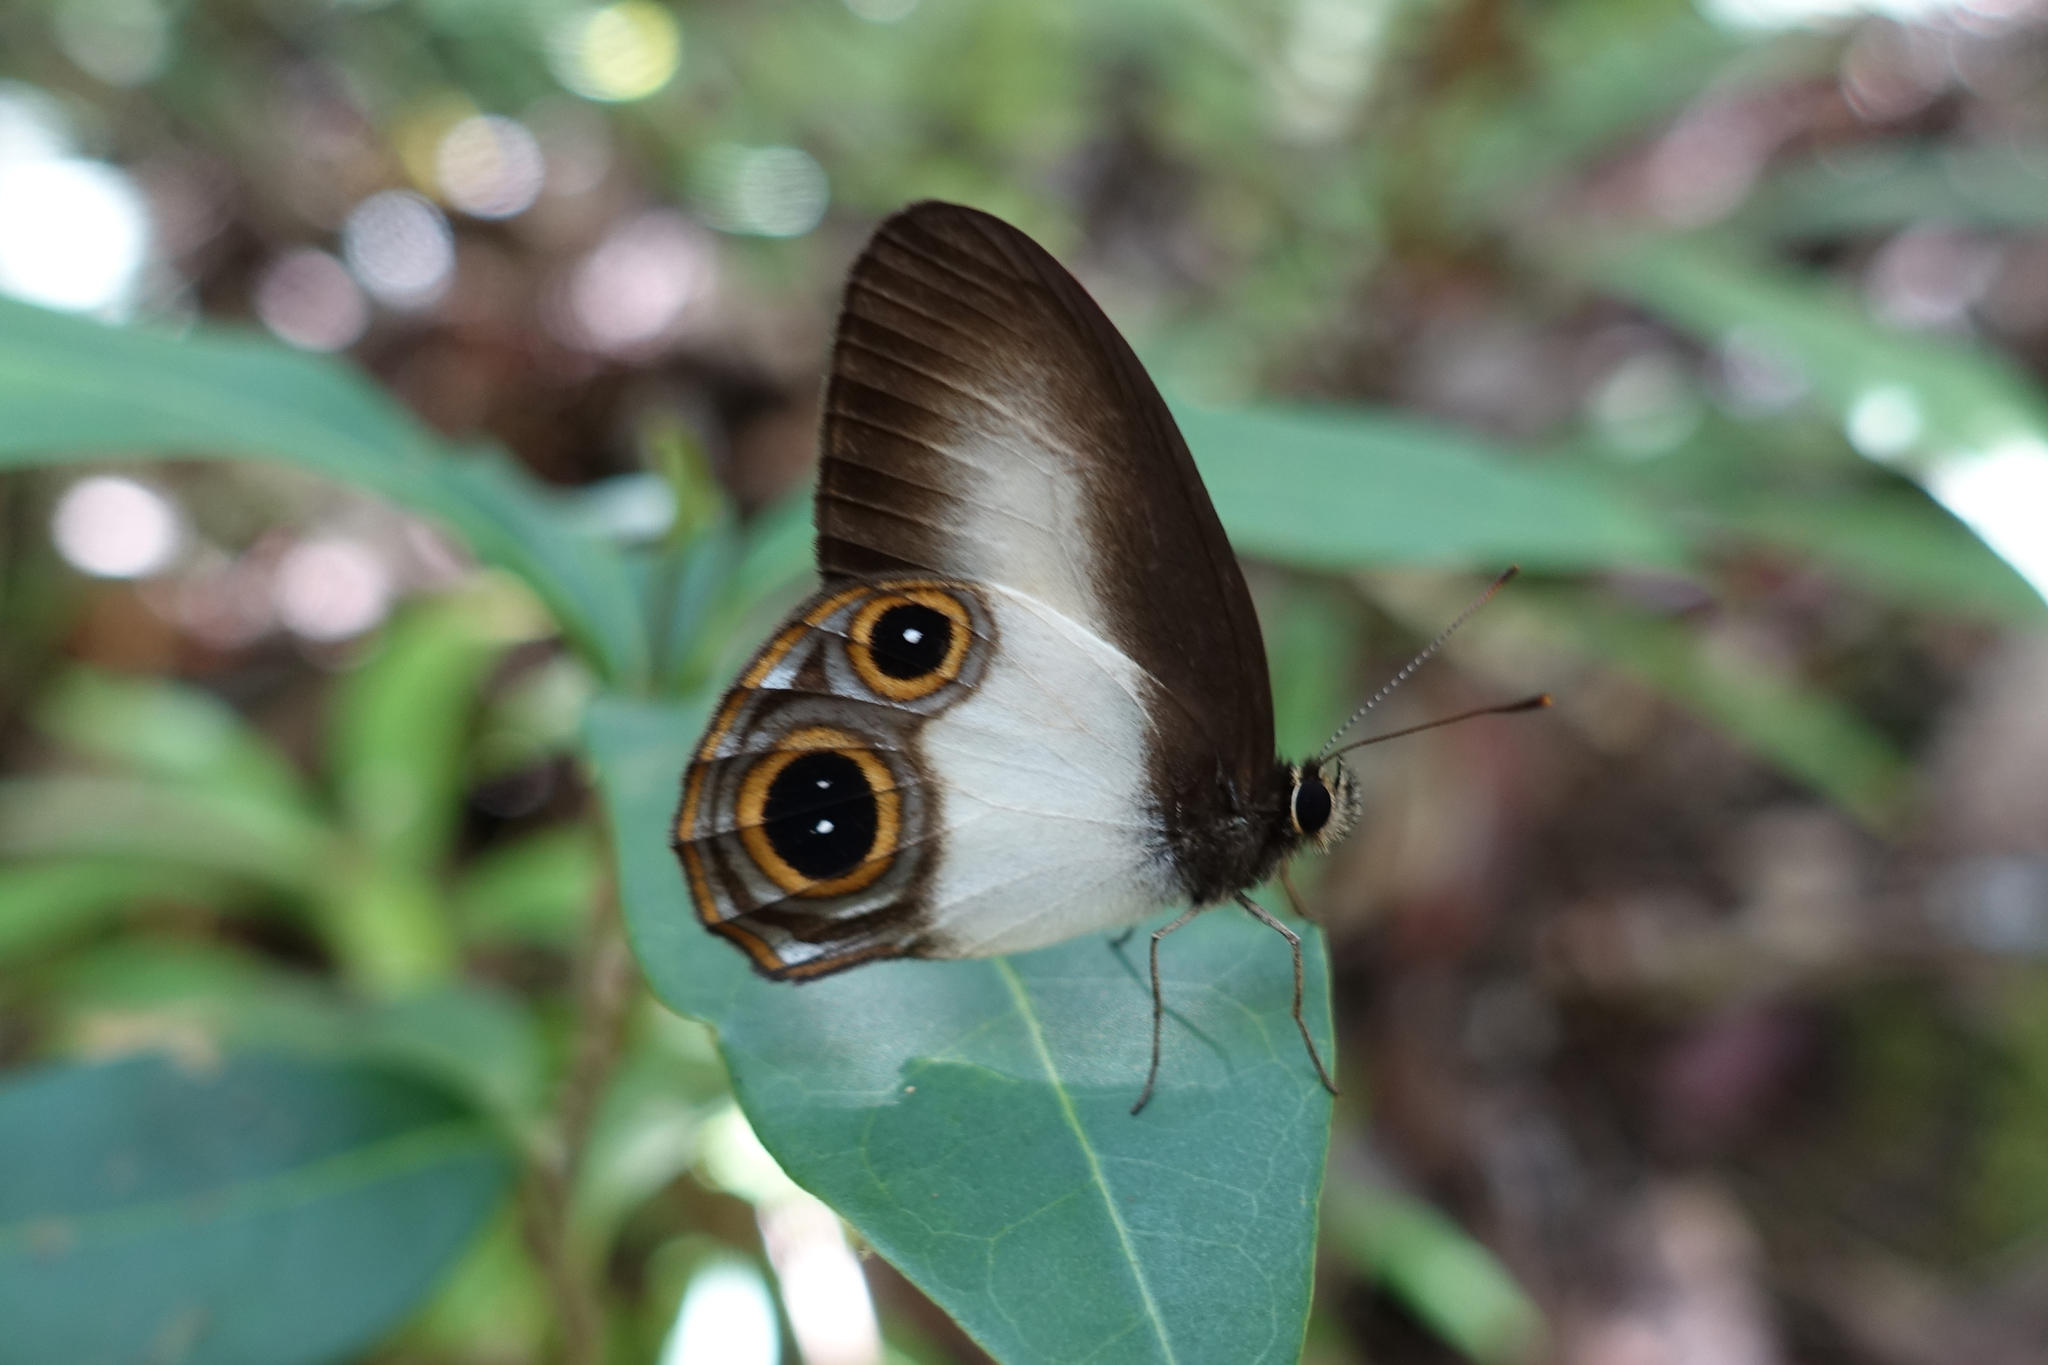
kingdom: Animalia
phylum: Arthropoda
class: Insecta
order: Lepidoptera
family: Nymphalidae
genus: Hypocysta
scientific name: Hypocysta osyris
